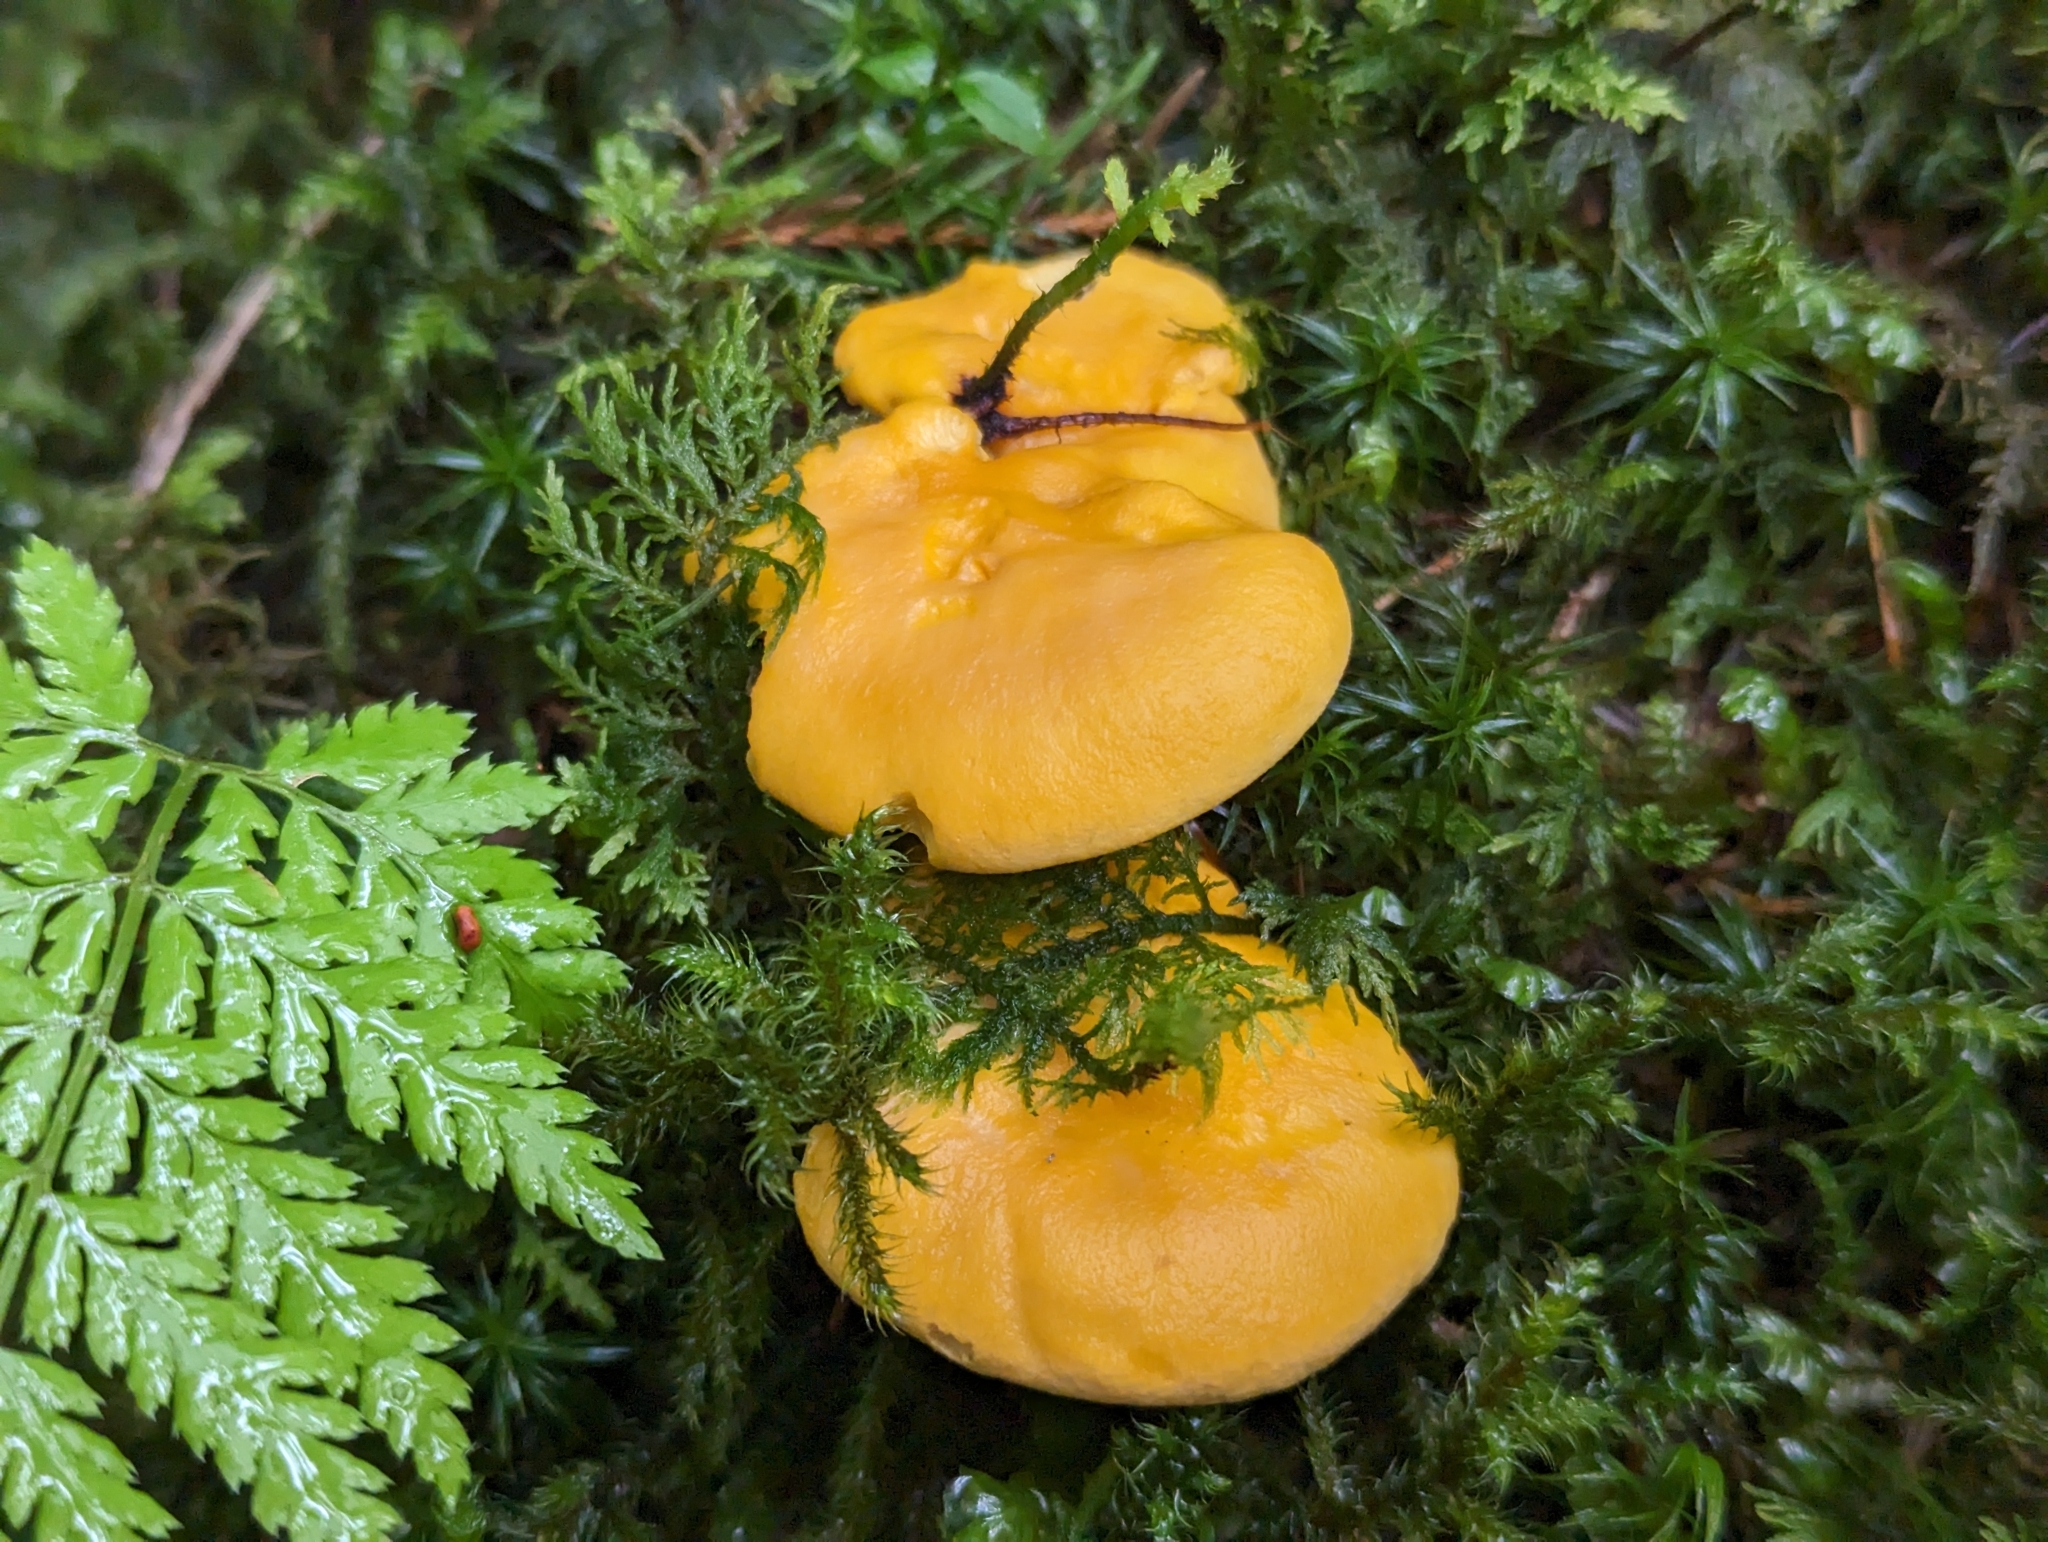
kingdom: Fungi
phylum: Basidiomycota
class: Agaricomycetes
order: Cantharellales
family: Hydnaceae
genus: Cantharellus
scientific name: Cantharellus cibarius
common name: Chanterelle
